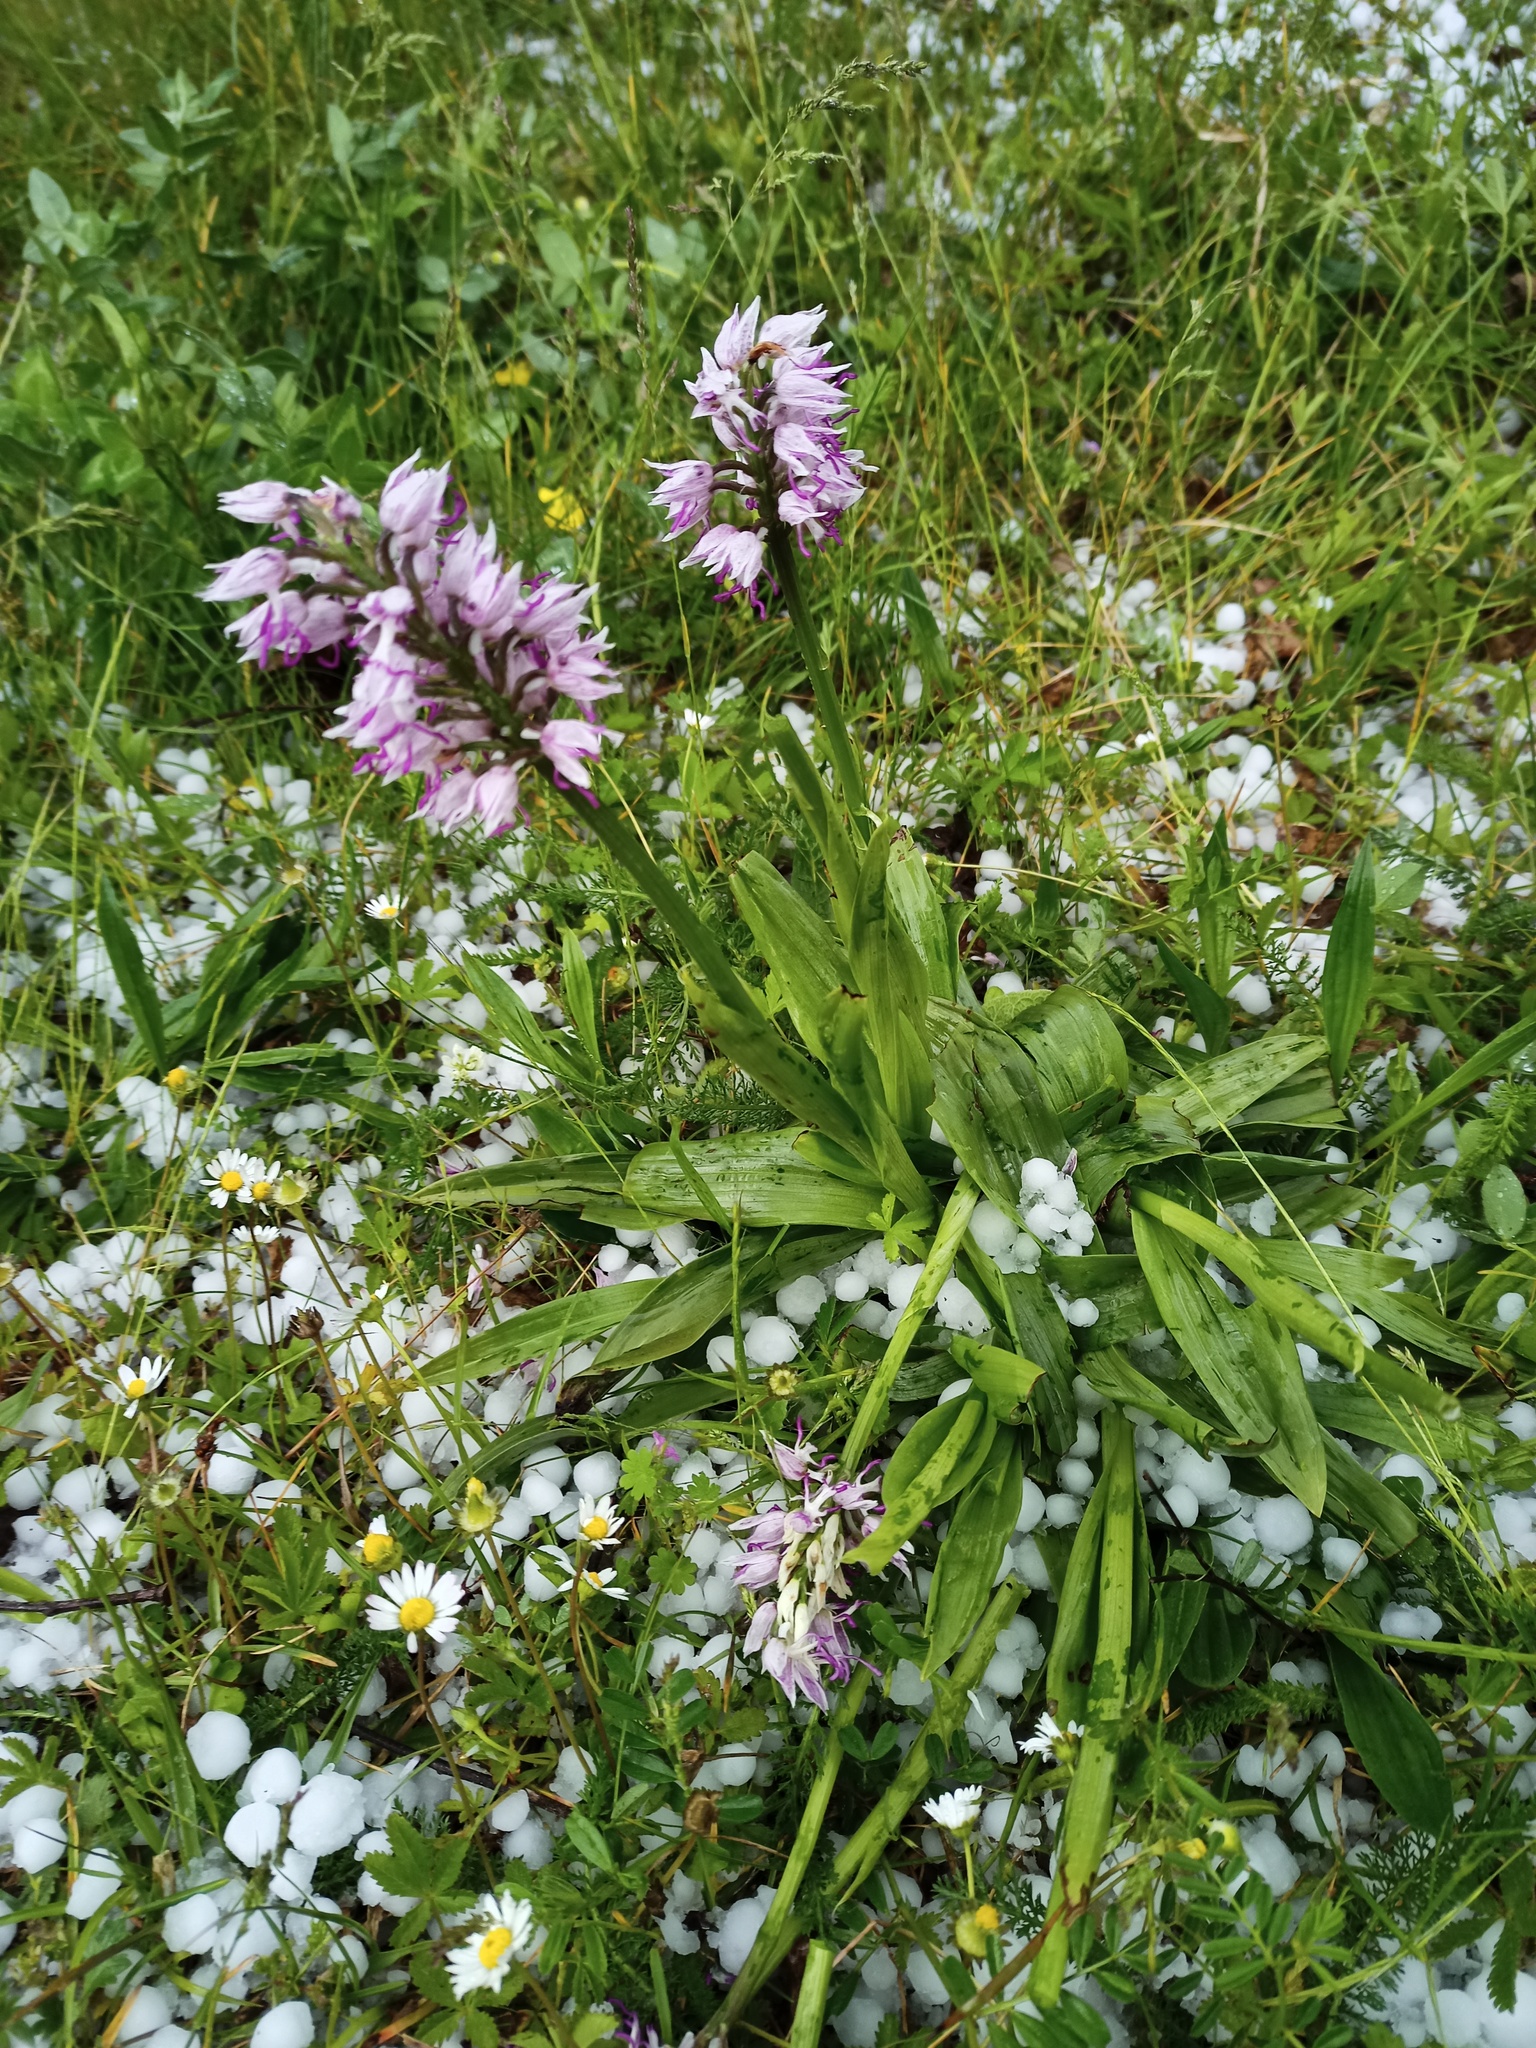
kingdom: Plantae
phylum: Tracheophyta
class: Liliopsida
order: Asparagales
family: Orchidaceae
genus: Orchis
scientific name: Orchis simia
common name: Monkey orchid
